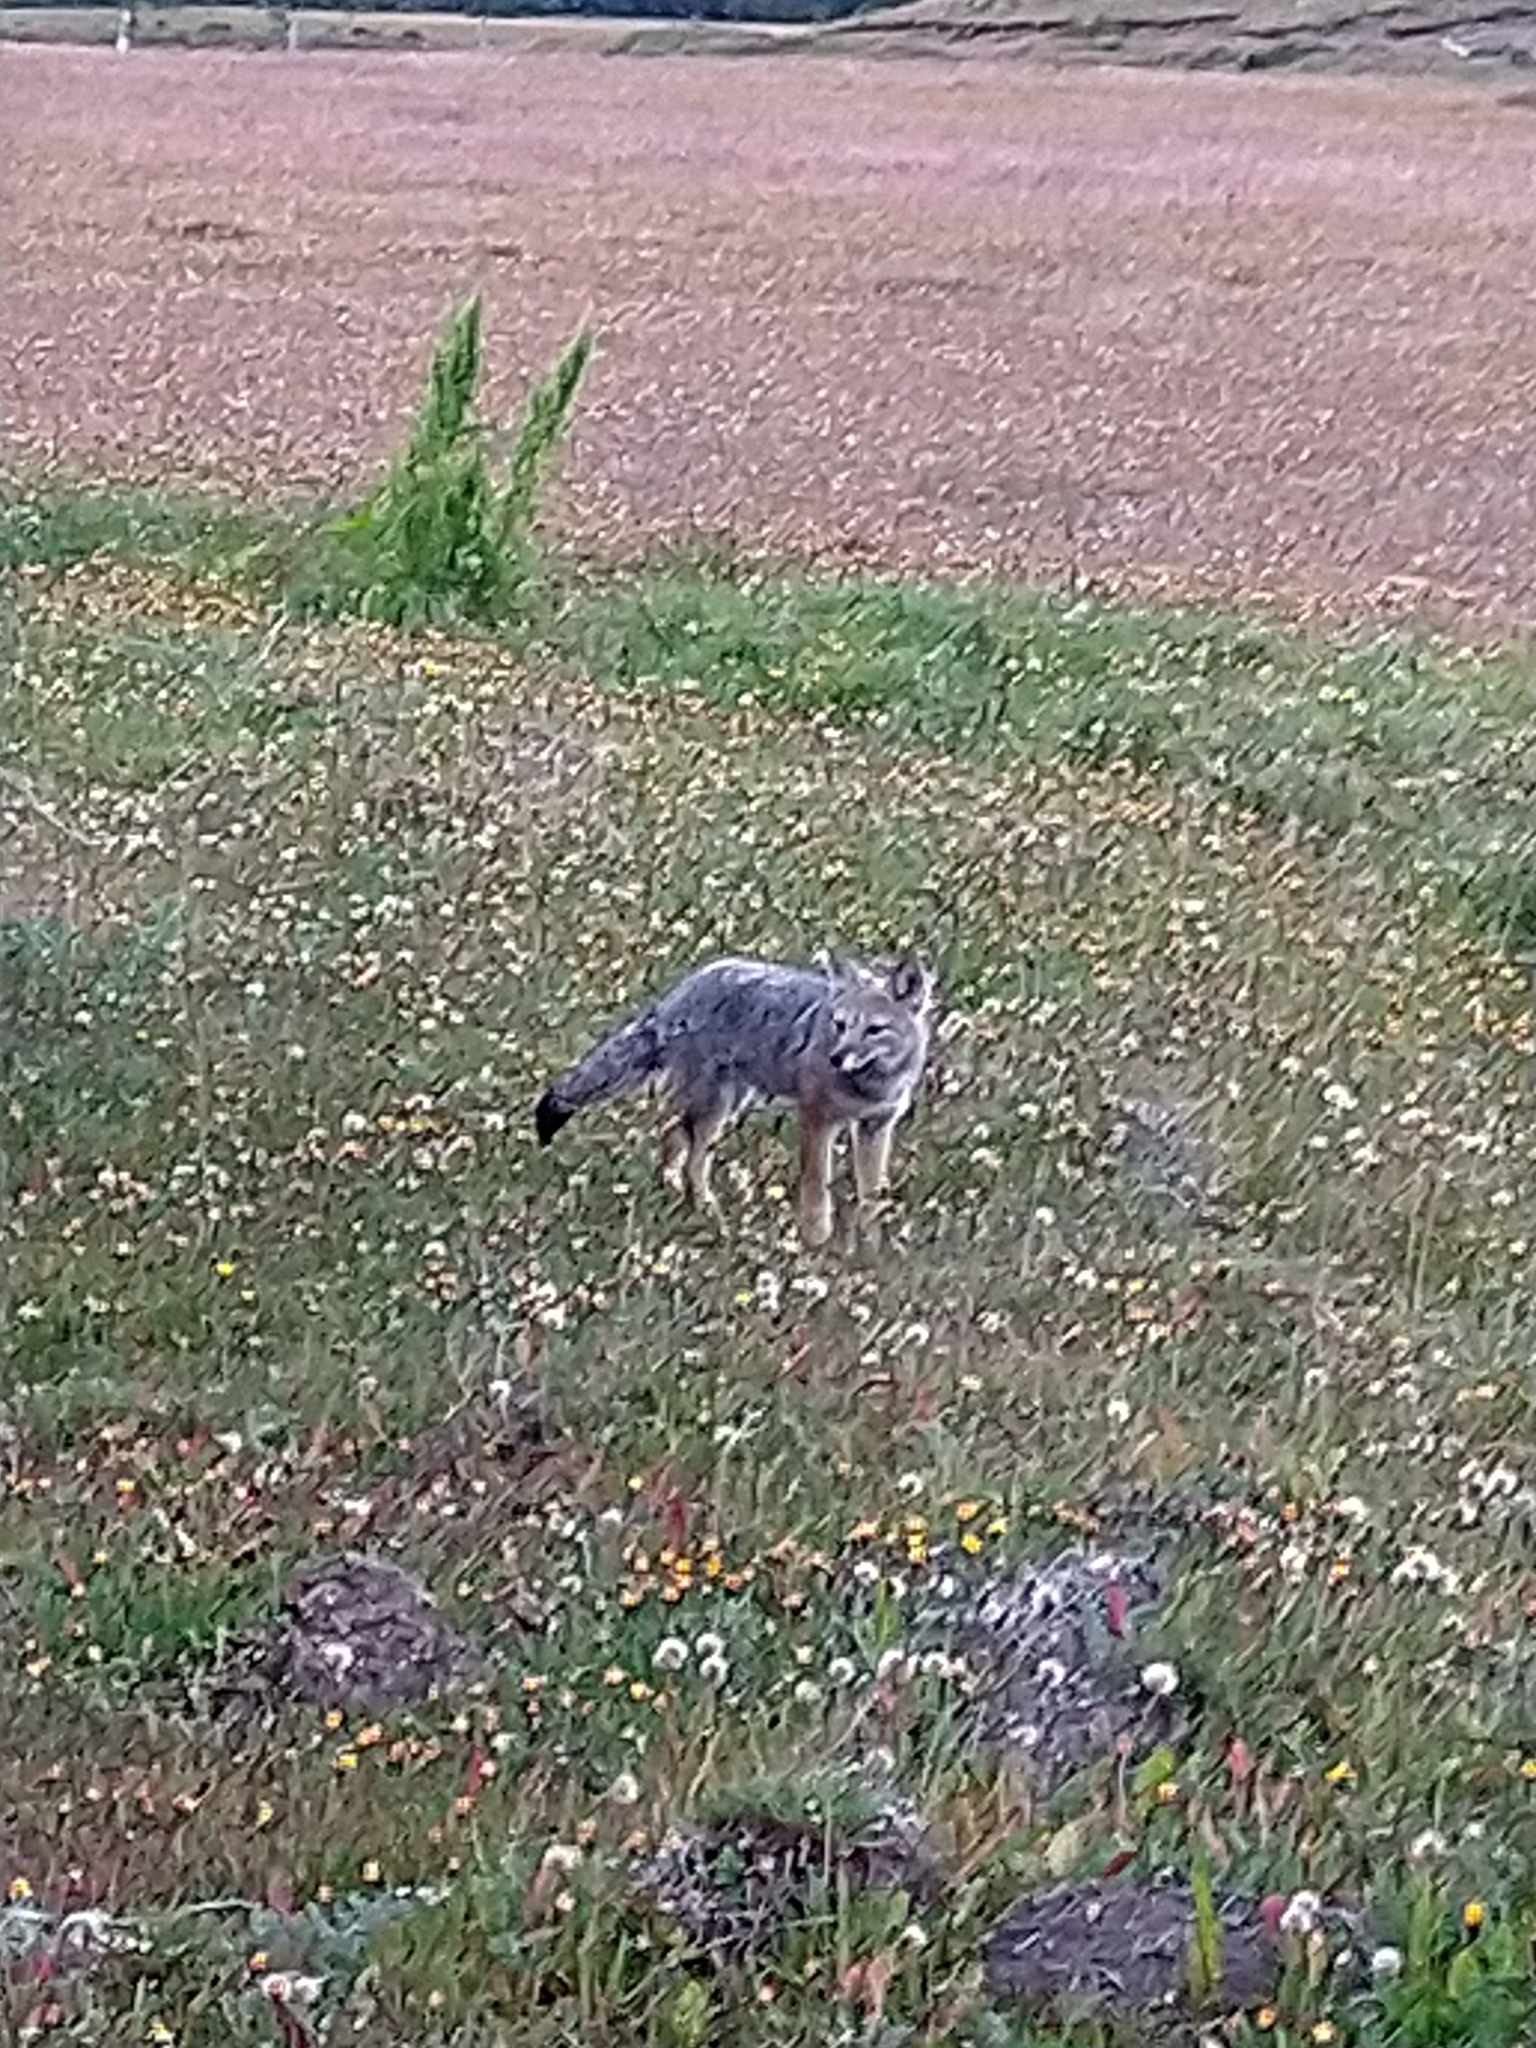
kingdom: Animalia
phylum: Chordata
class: Mammalia
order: Carnivora
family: Canidae
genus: Lycalopex
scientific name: Lycalopex gymnocercus
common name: Pampas fox
